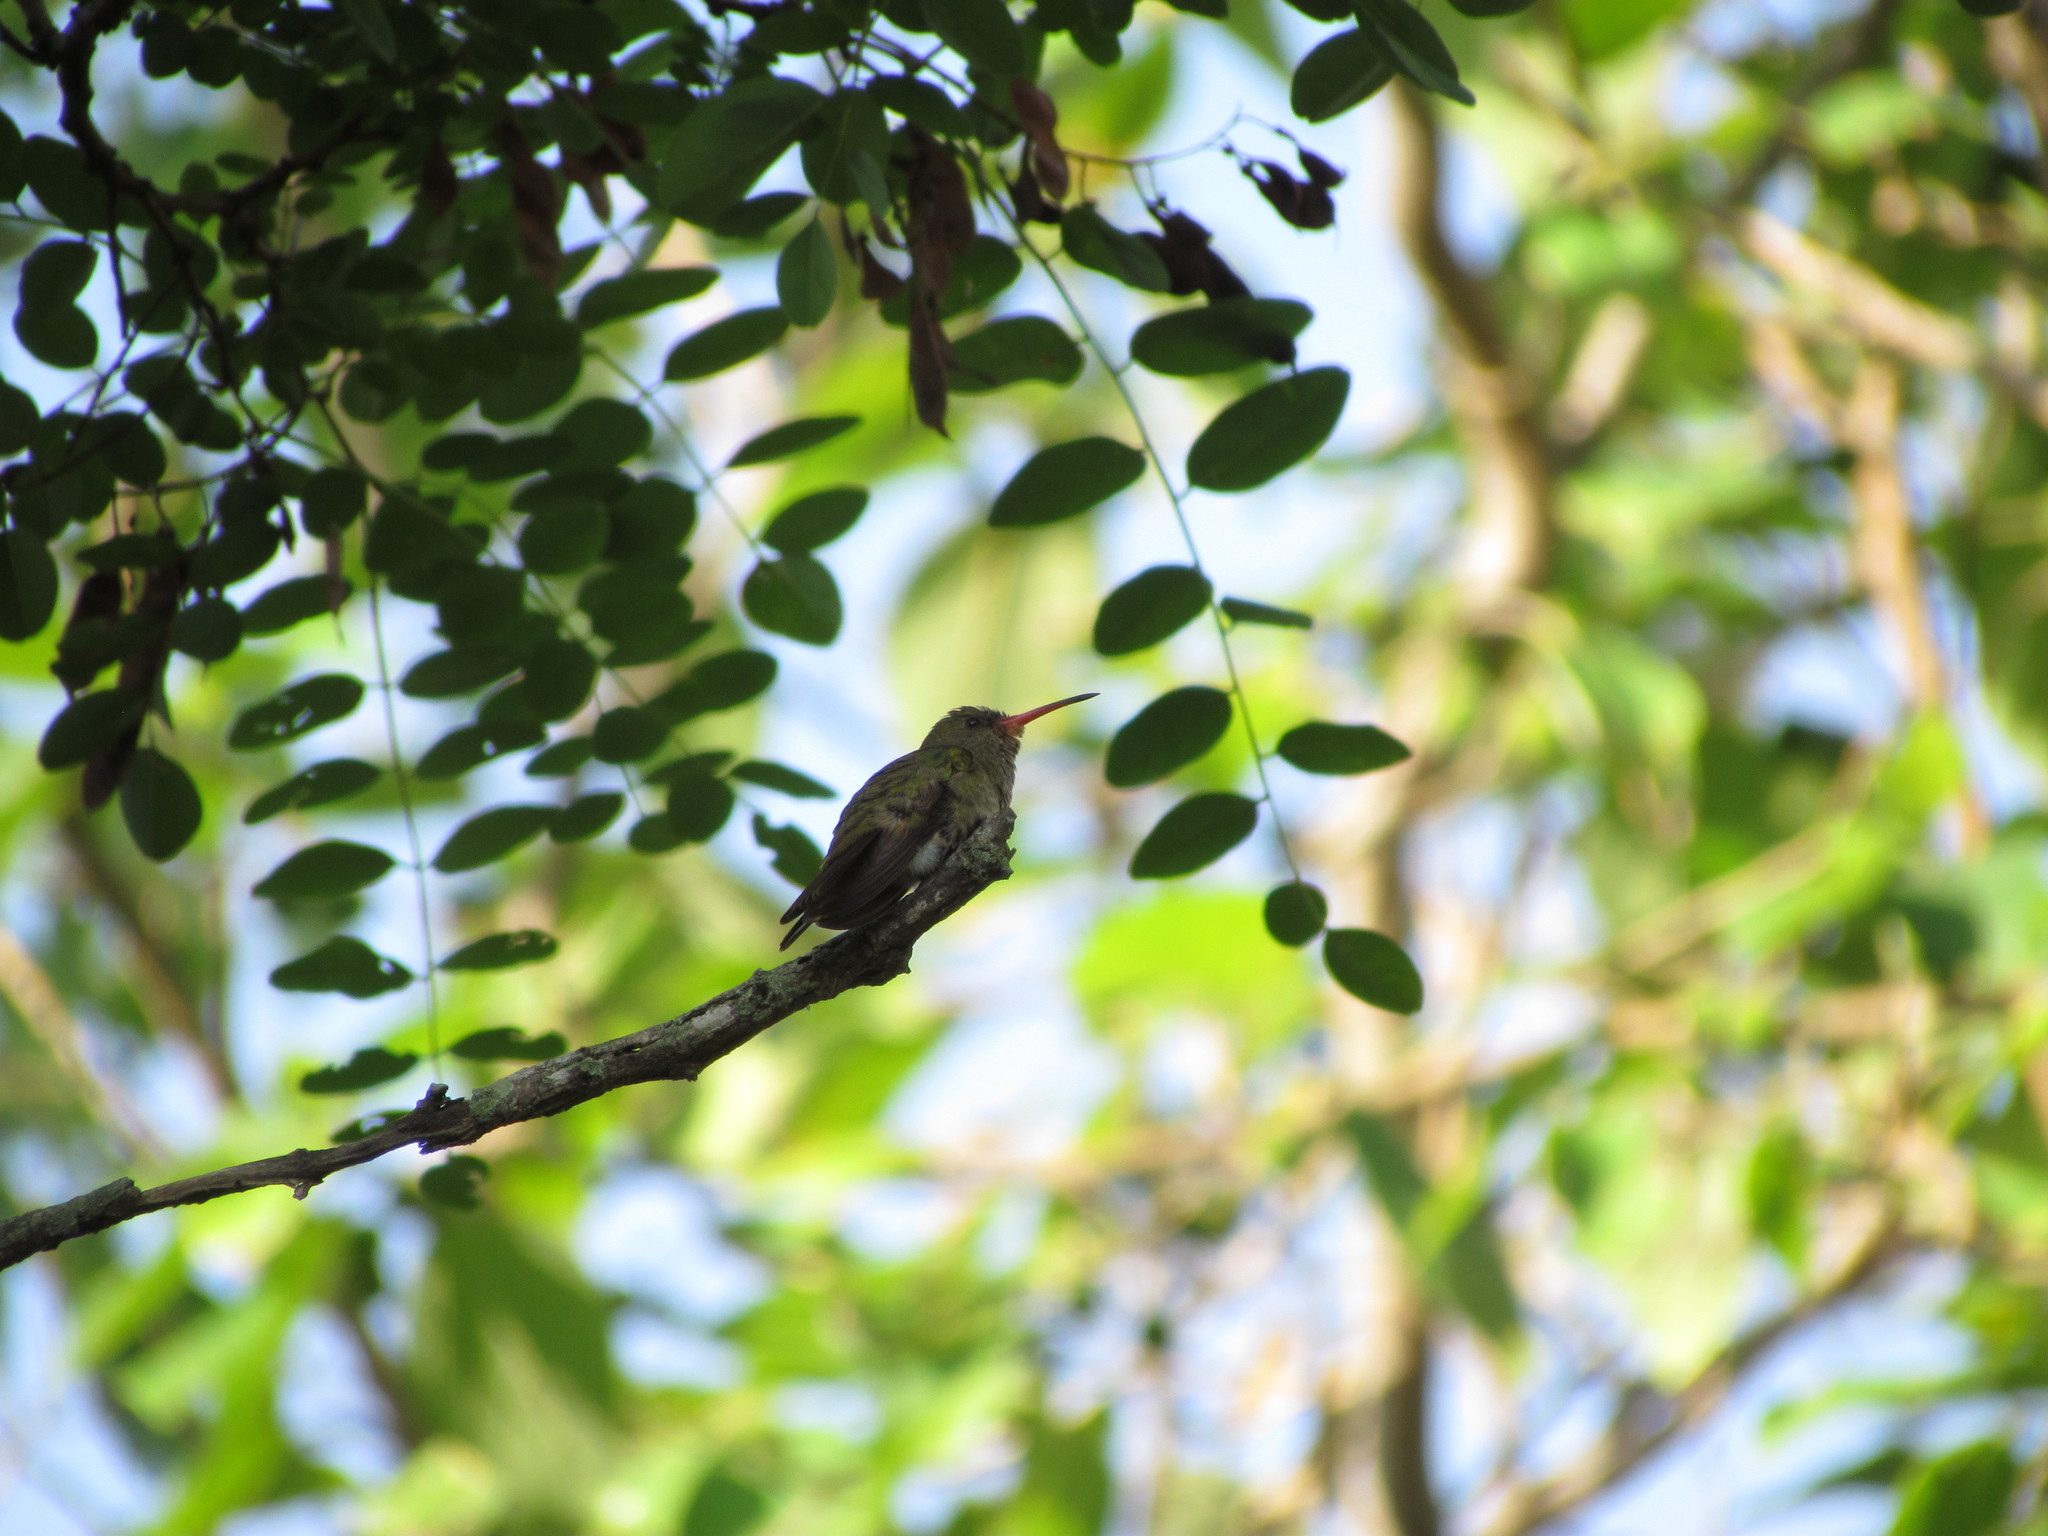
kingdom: Animalia
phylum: Chordata
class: Aves
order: Apodiformes
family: Trochilidae
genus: Hylocharis
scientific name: Hylocharis chrysura
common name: Gilded sapphire
